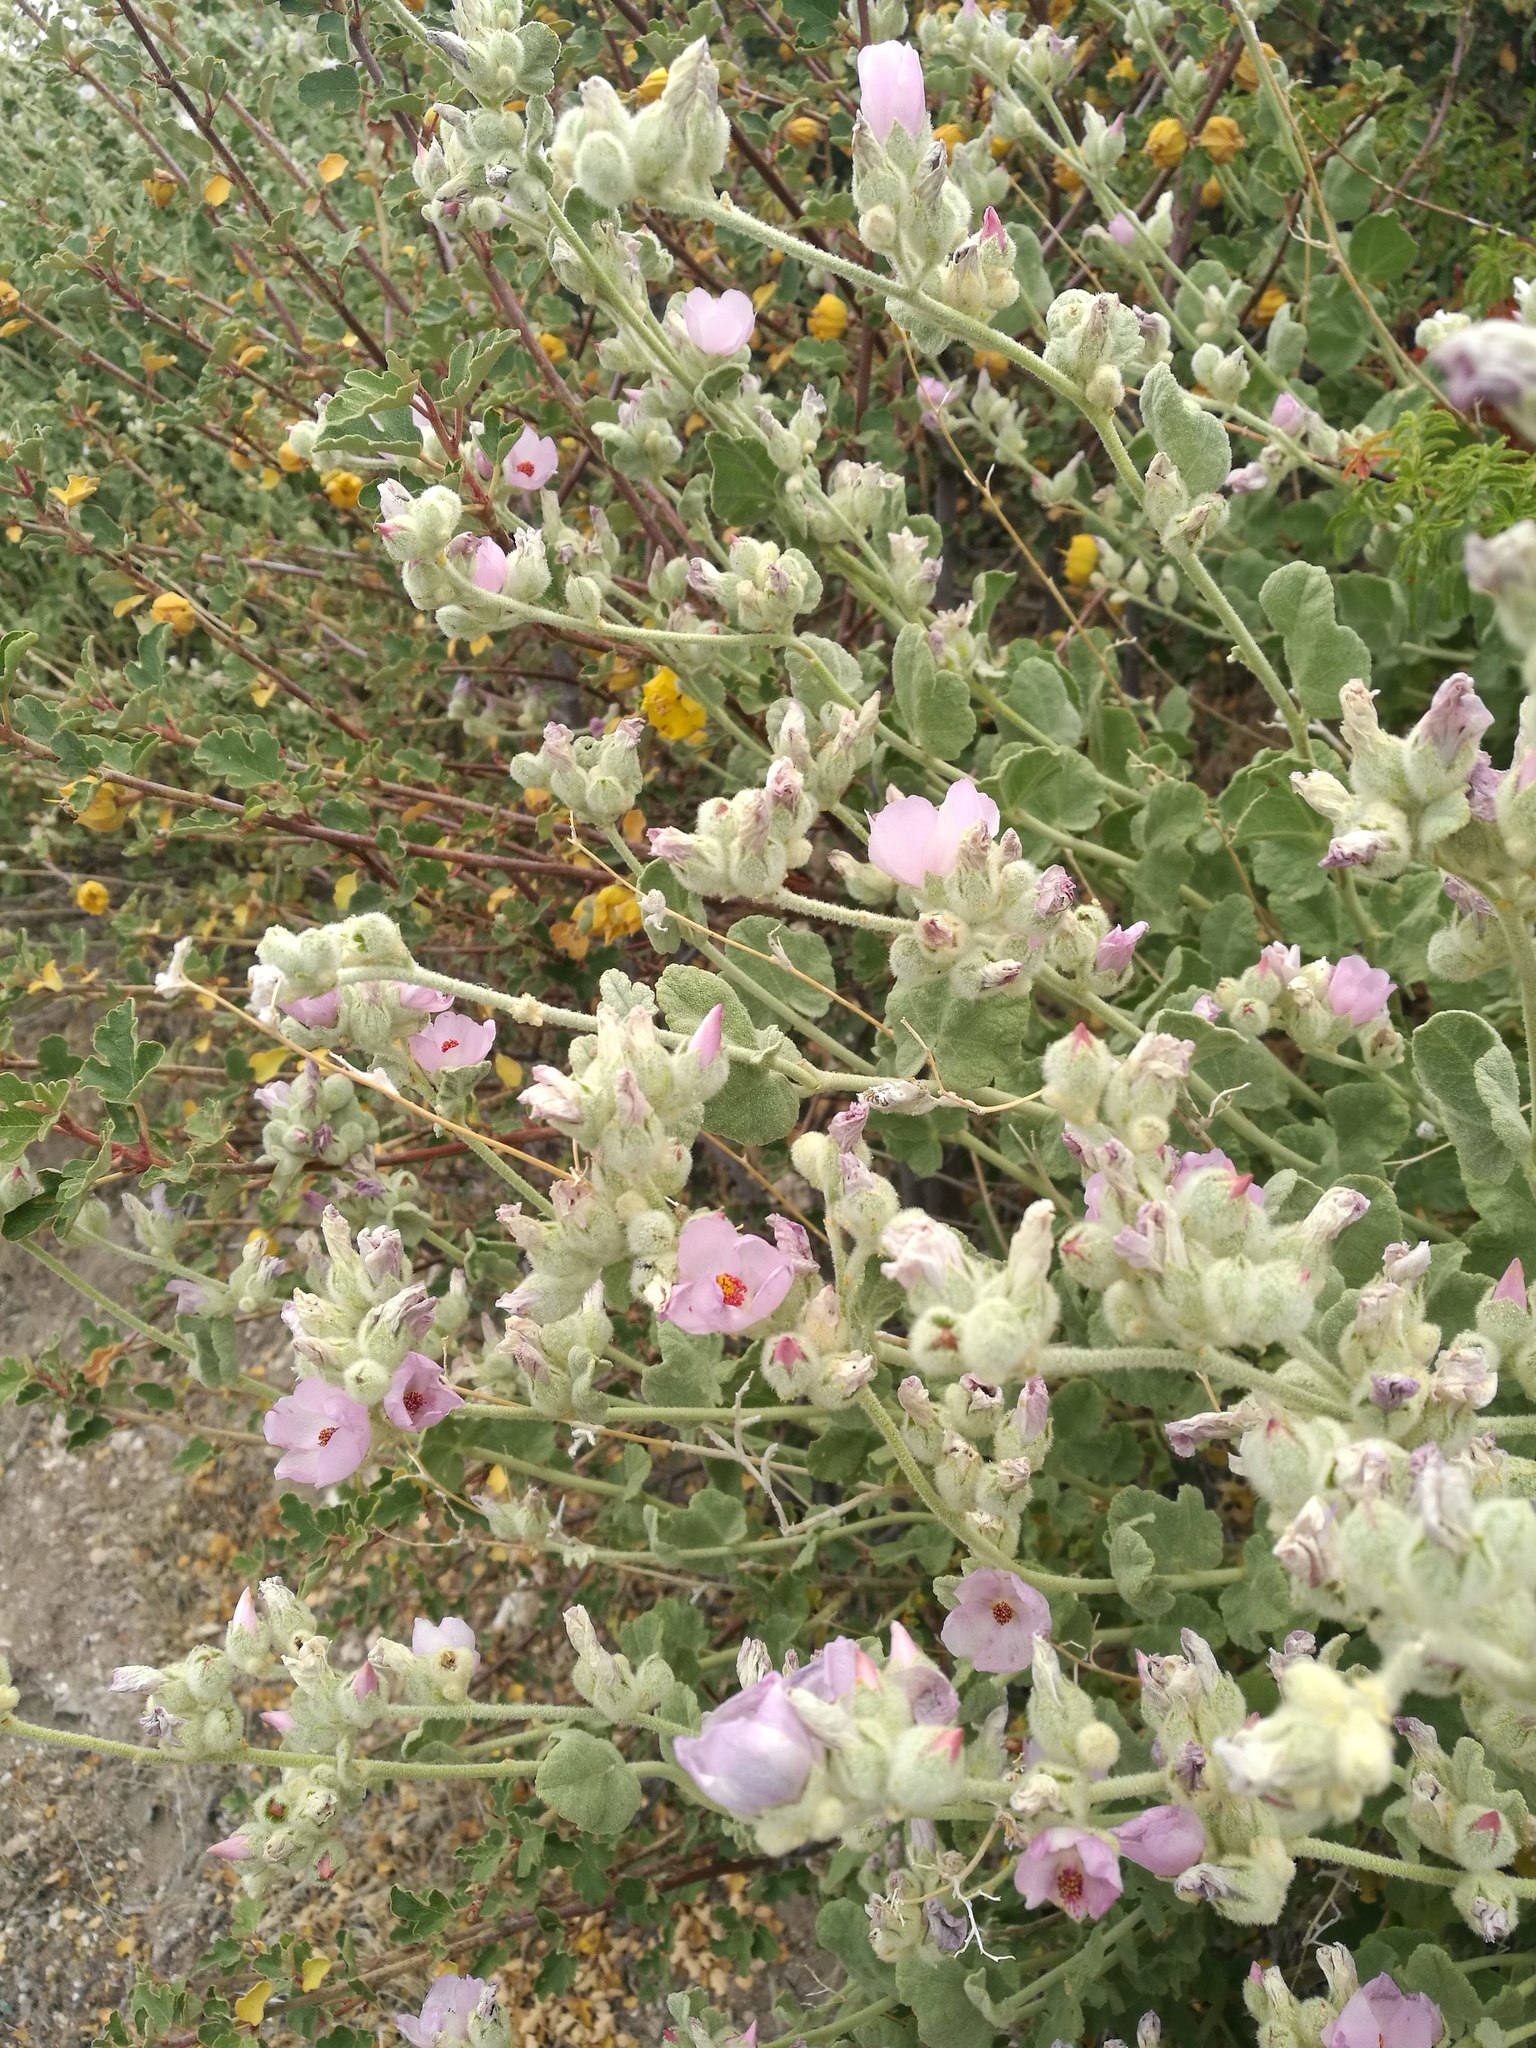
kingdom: Plantae
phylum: Tracheophyta
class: Magnoliopsida
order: Malvales
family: Malvaceae
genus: Malacothamnus
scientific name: Malacothamnus fremontii
